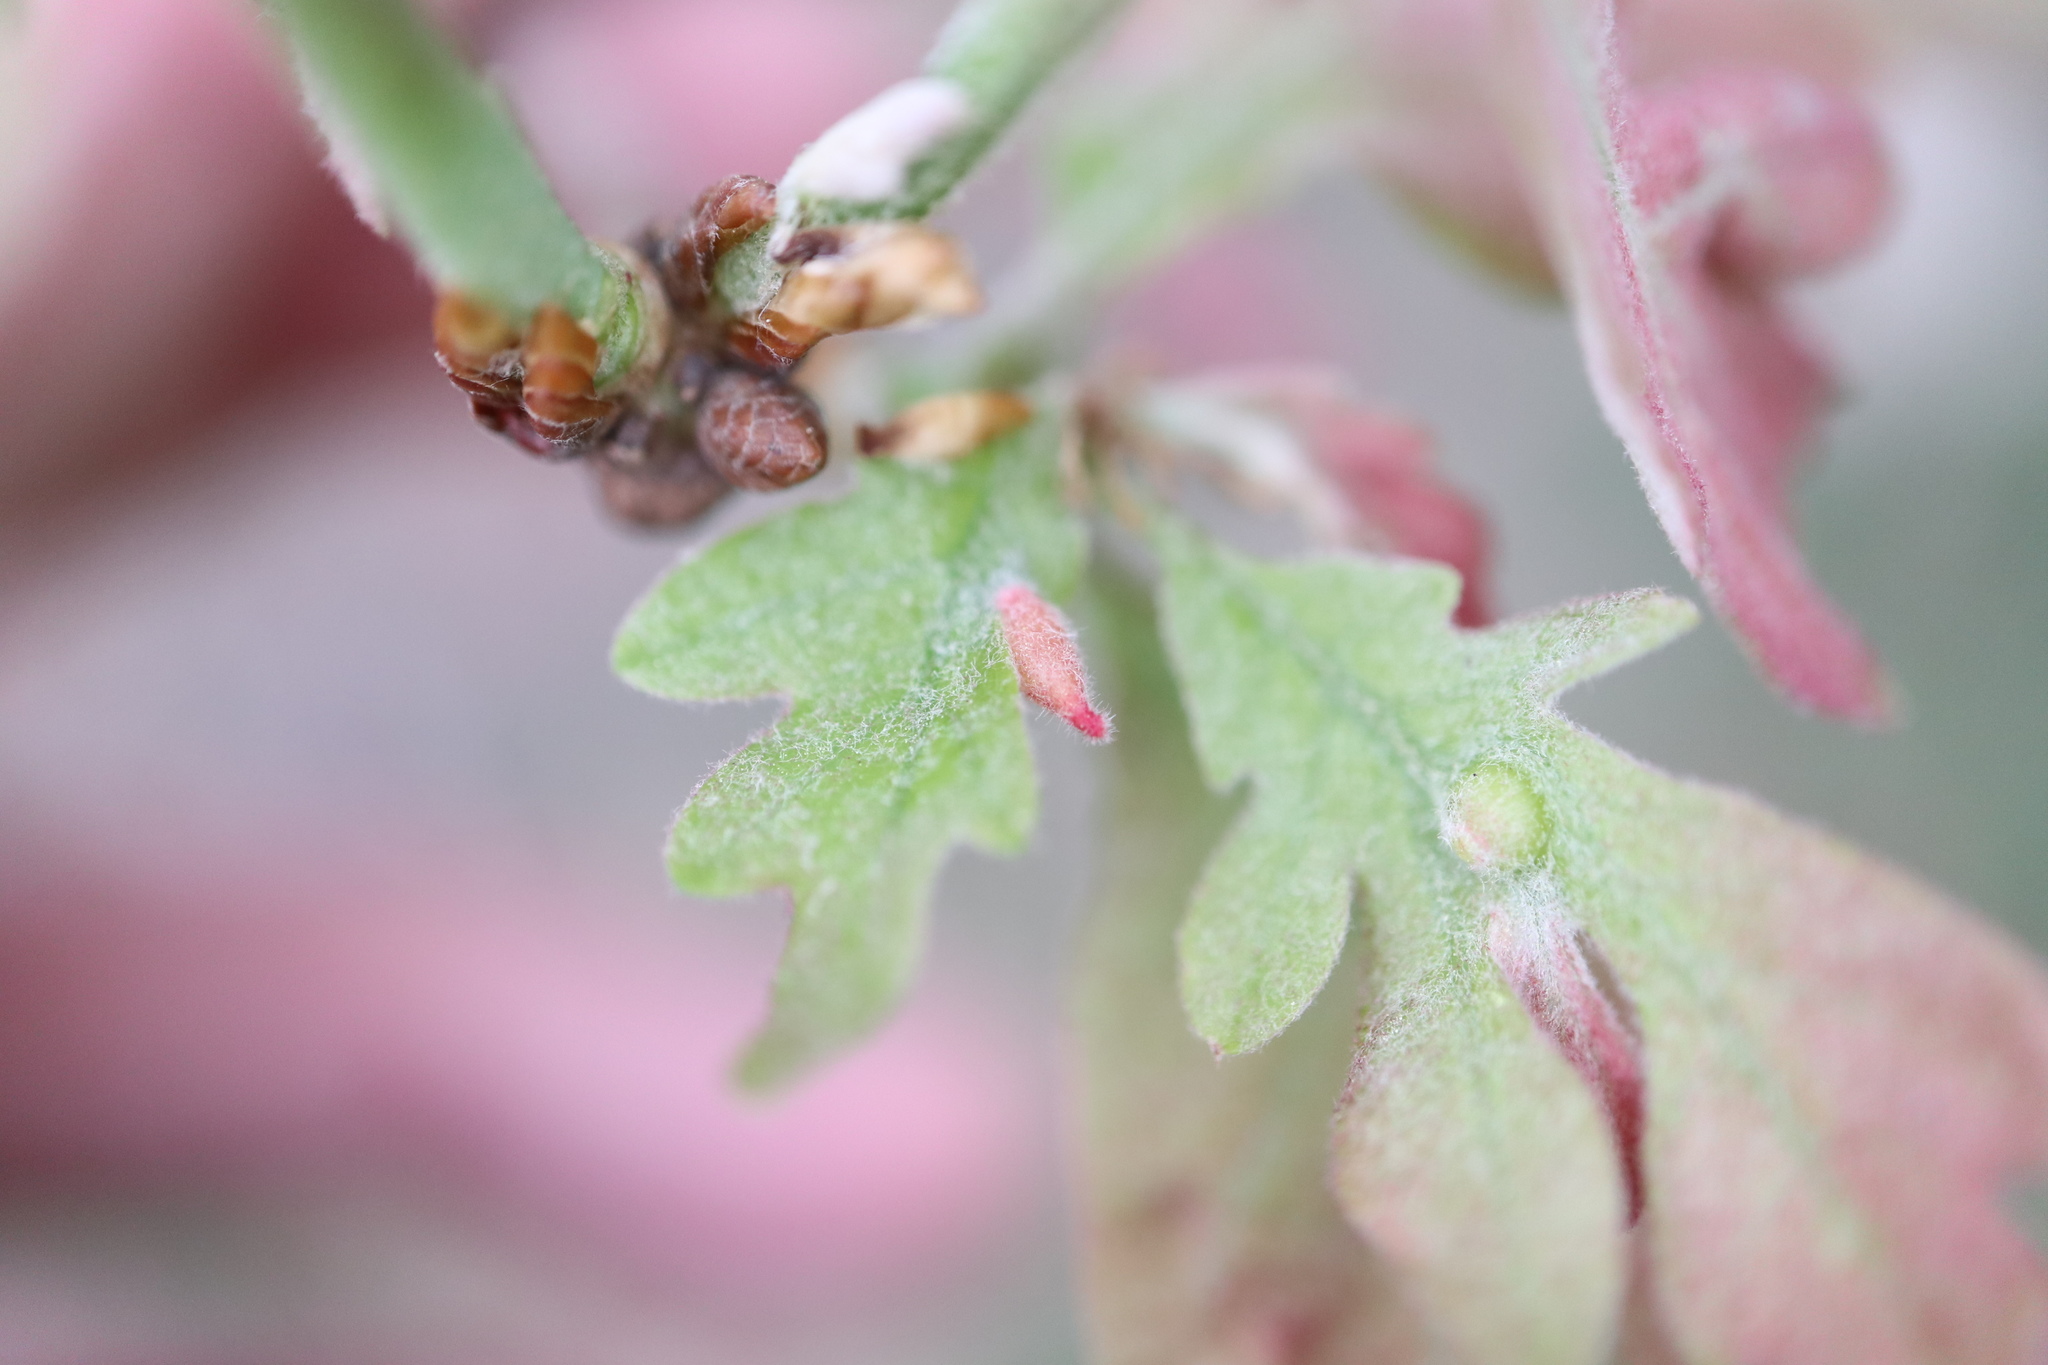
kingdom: Animalia
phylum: Arthropoda
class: Insecta
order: Hymenoptera
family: Cynipidae
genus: Andricus
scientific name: Andricus
